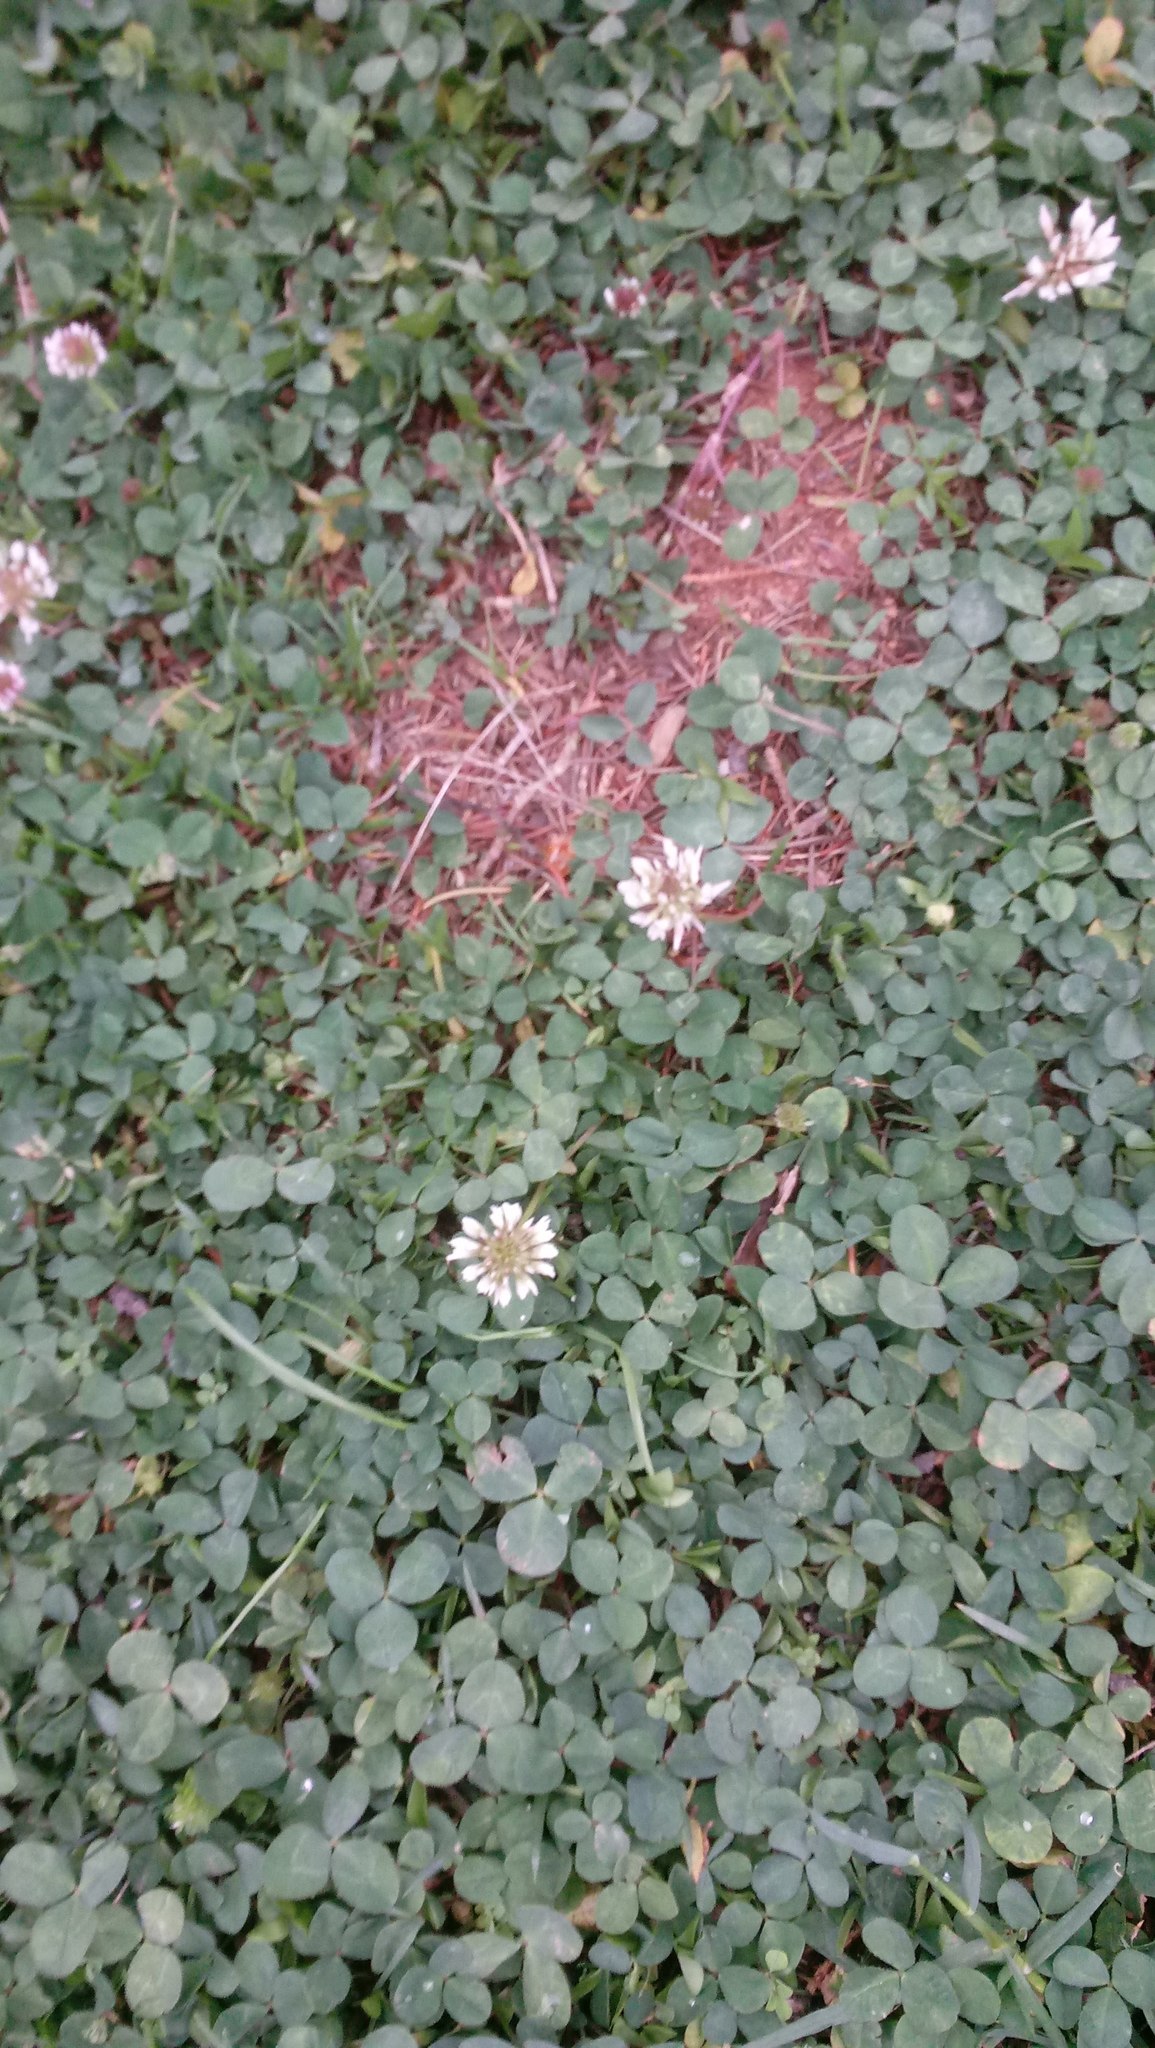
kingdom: Plantae
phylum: Tracheophyta
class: Magnoliopsida
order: Fabales
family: Fabaceae
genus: Trifolium
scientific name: Trifolium repens
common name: White clover
